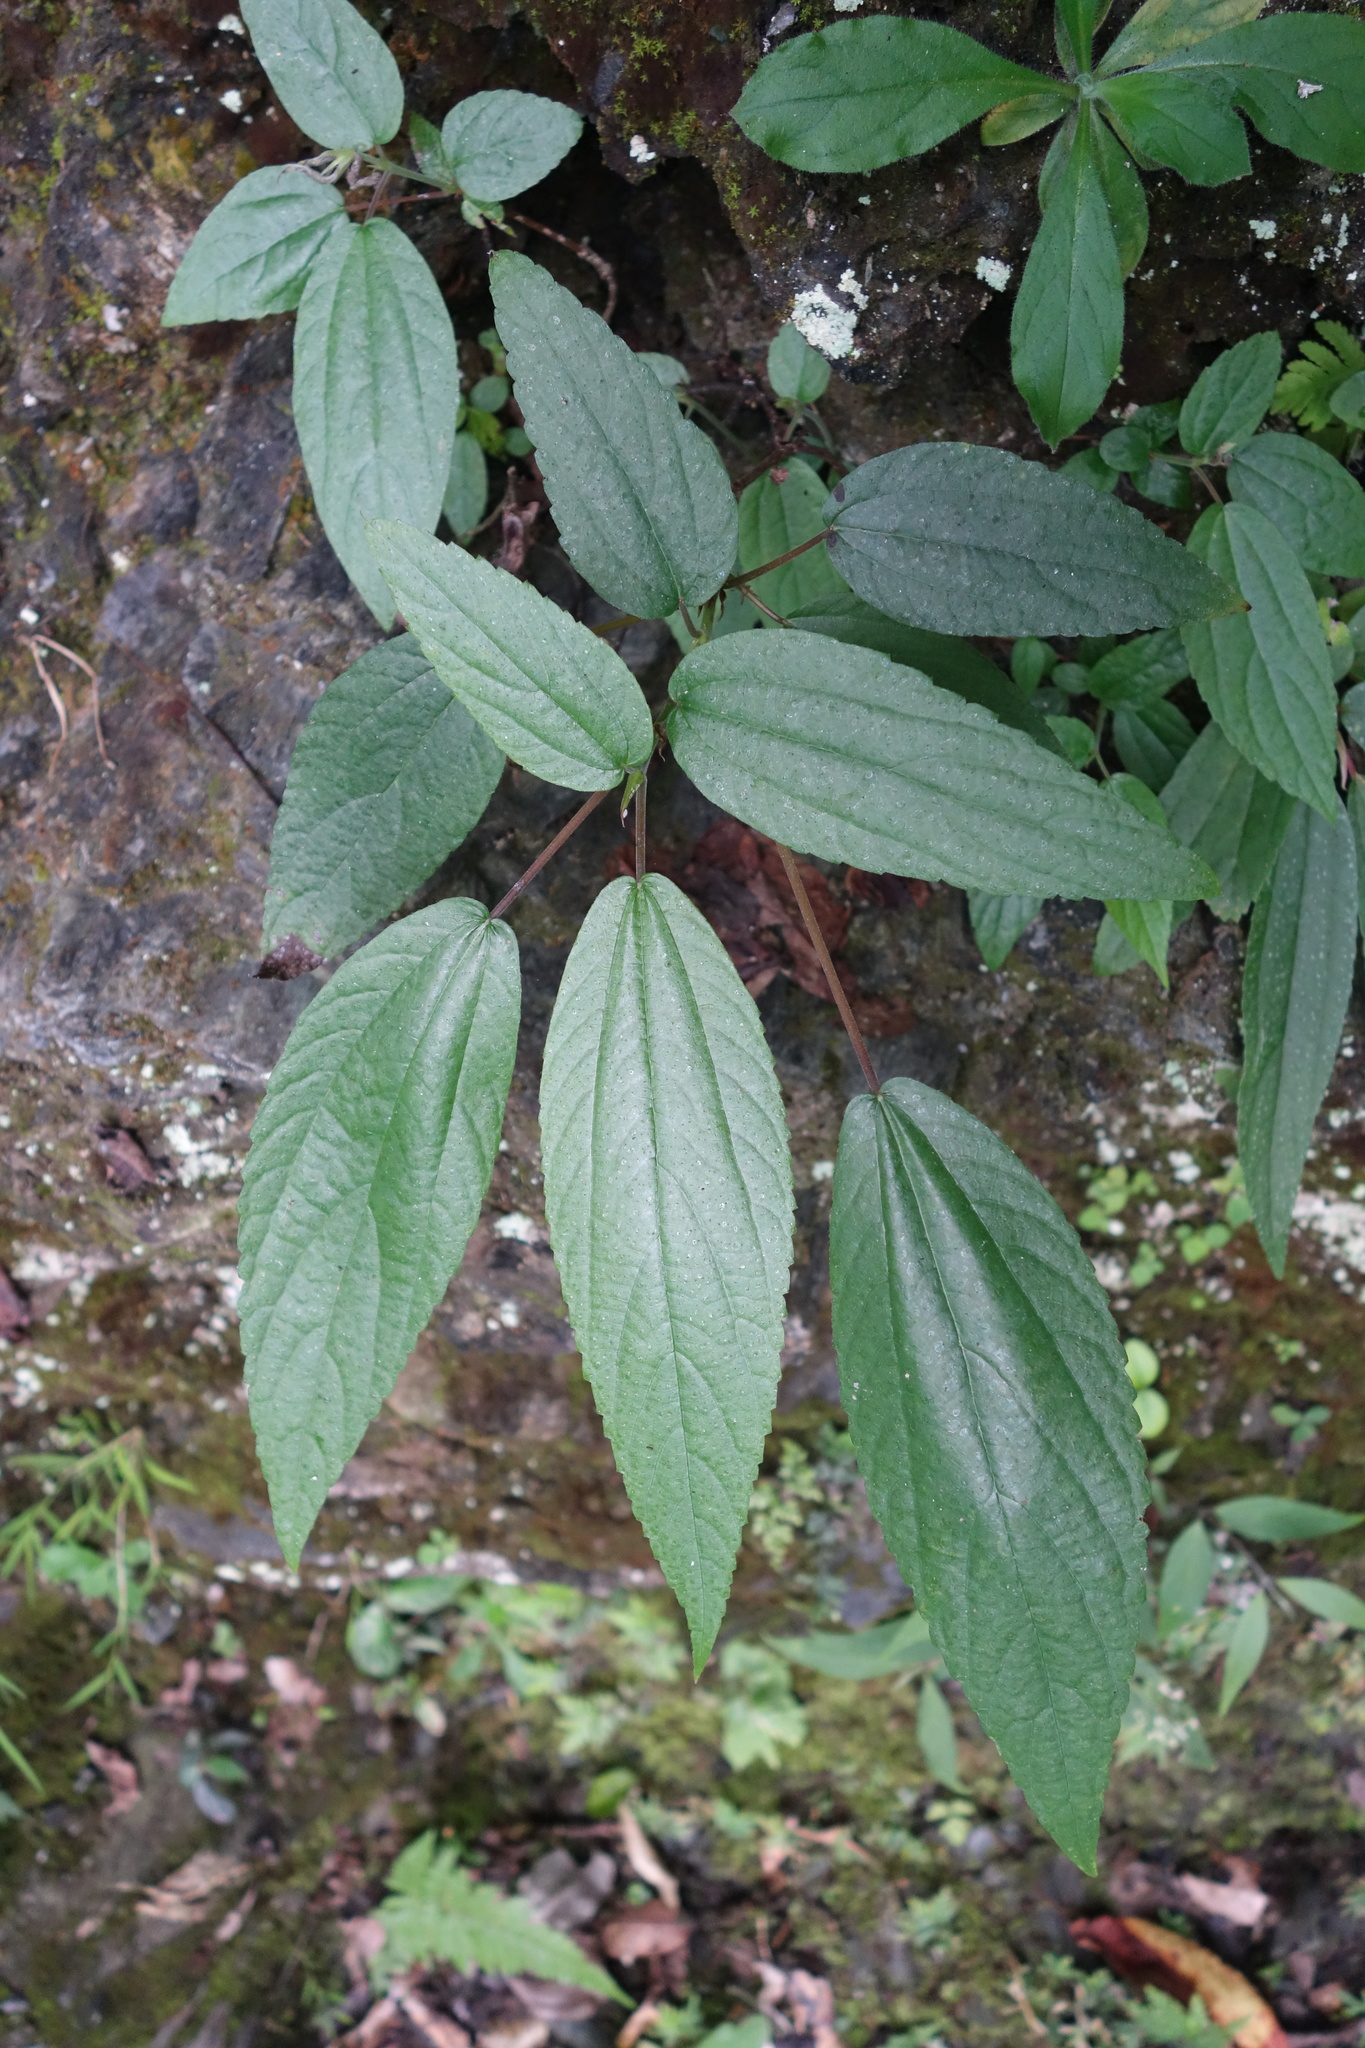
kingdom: Plantae
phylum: Tracheophyta
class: Magnoliopsida
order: Rosales
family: Urticaceae
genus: Oreocnide
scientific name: Oreocnide pedunculata
